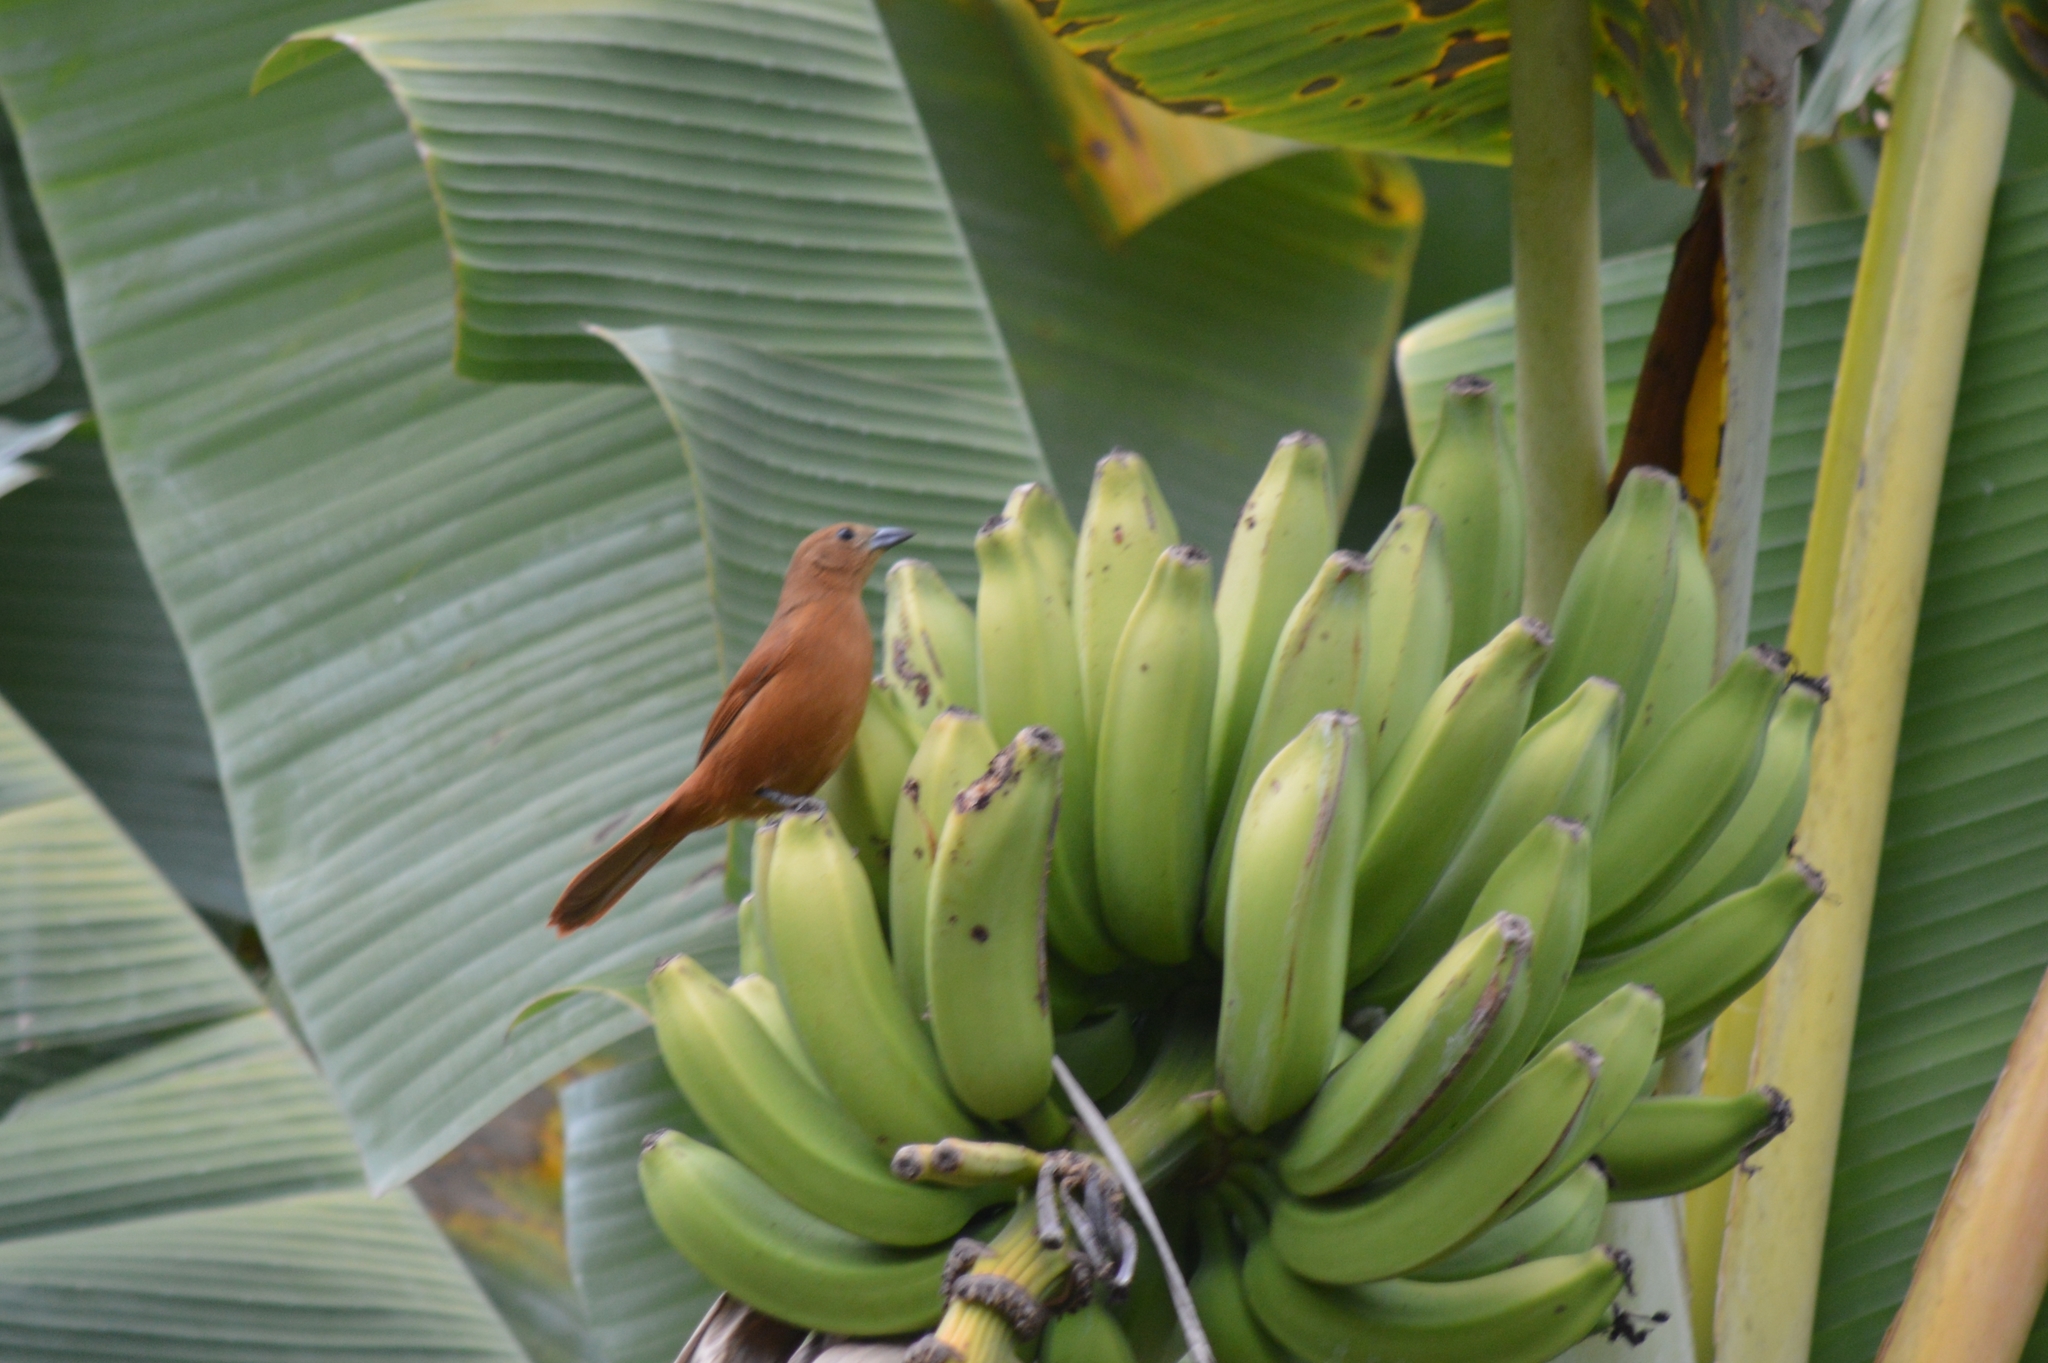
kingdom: Animalia
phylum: Chordata
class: Aves
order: Passeriformes
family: Thraupidae
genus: Tachyphonus
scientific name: Tachyphonus rufus
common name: White-lined tanager
